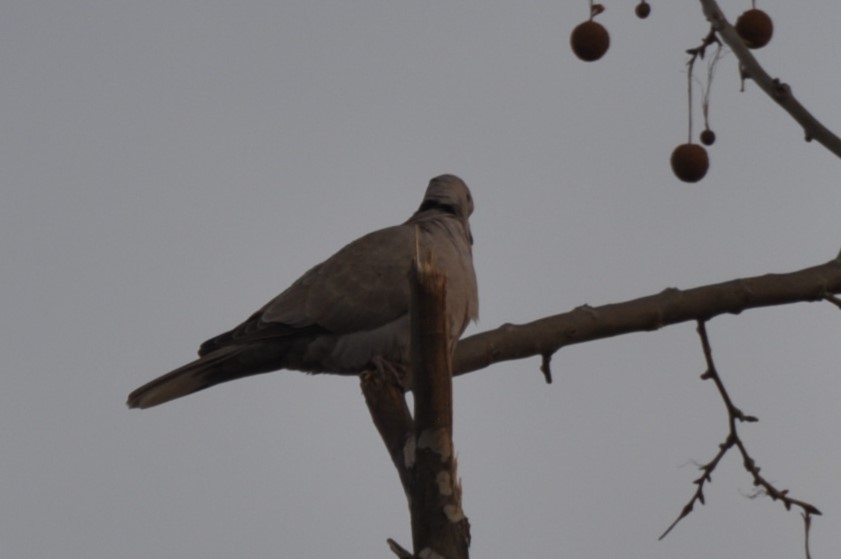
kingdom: Animalia
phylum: Chordata
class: Aves
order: Columbiformes
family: Columbidae
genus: Streptopelia
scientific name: Streptopelia decaocto
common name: Eurasian collared dove
